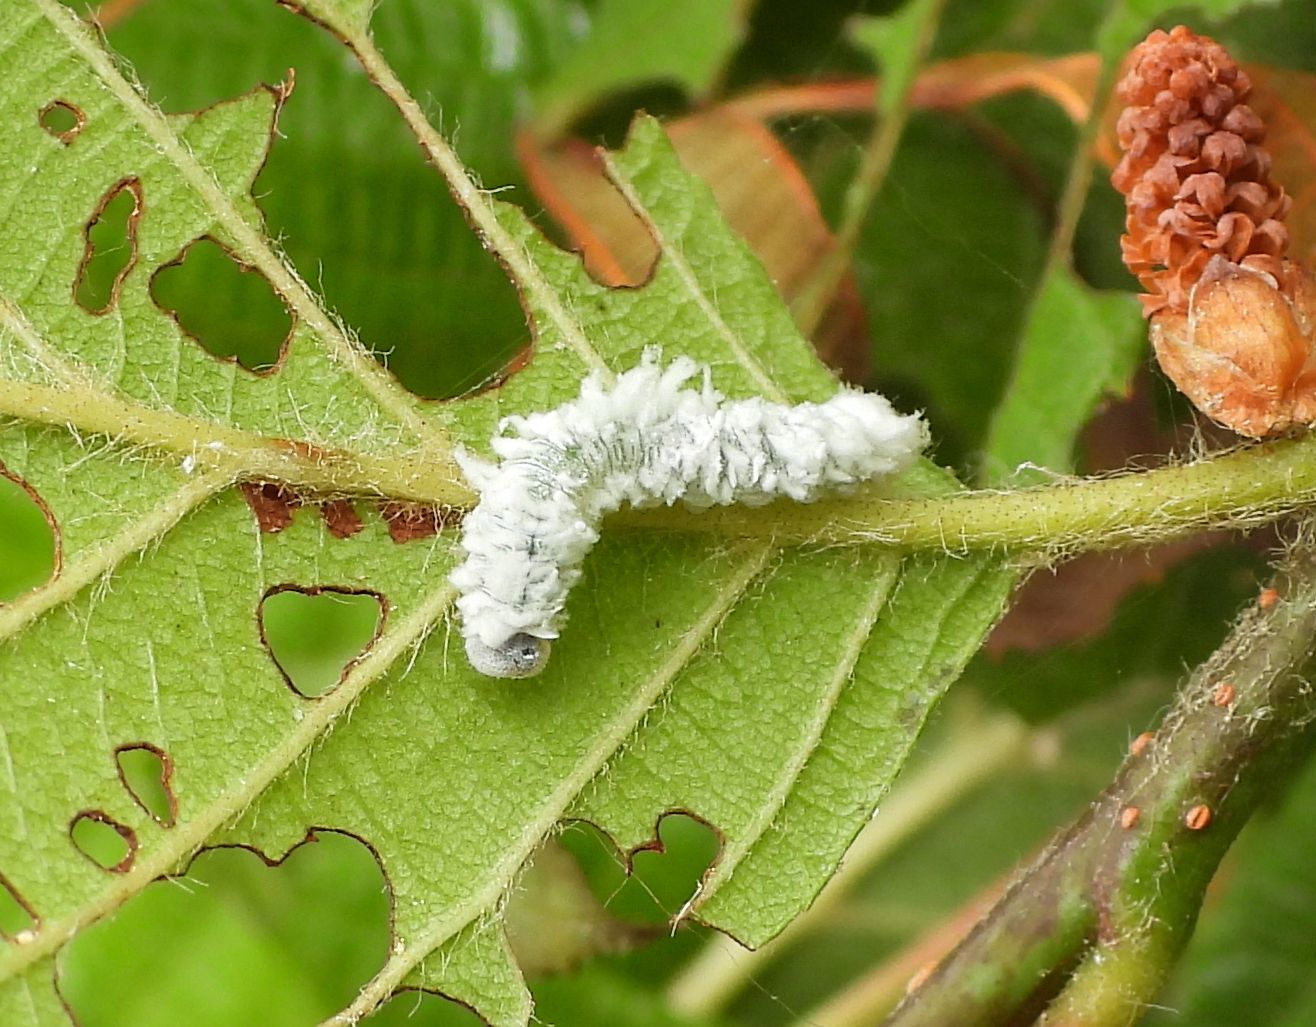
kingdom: Animalia
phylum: Arthropoda
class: Insecta
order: Hymenoptera
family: Tenthredinidae
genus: Eriocampa
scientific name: Eriocampa ovata
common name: Alder wooly sawfly
